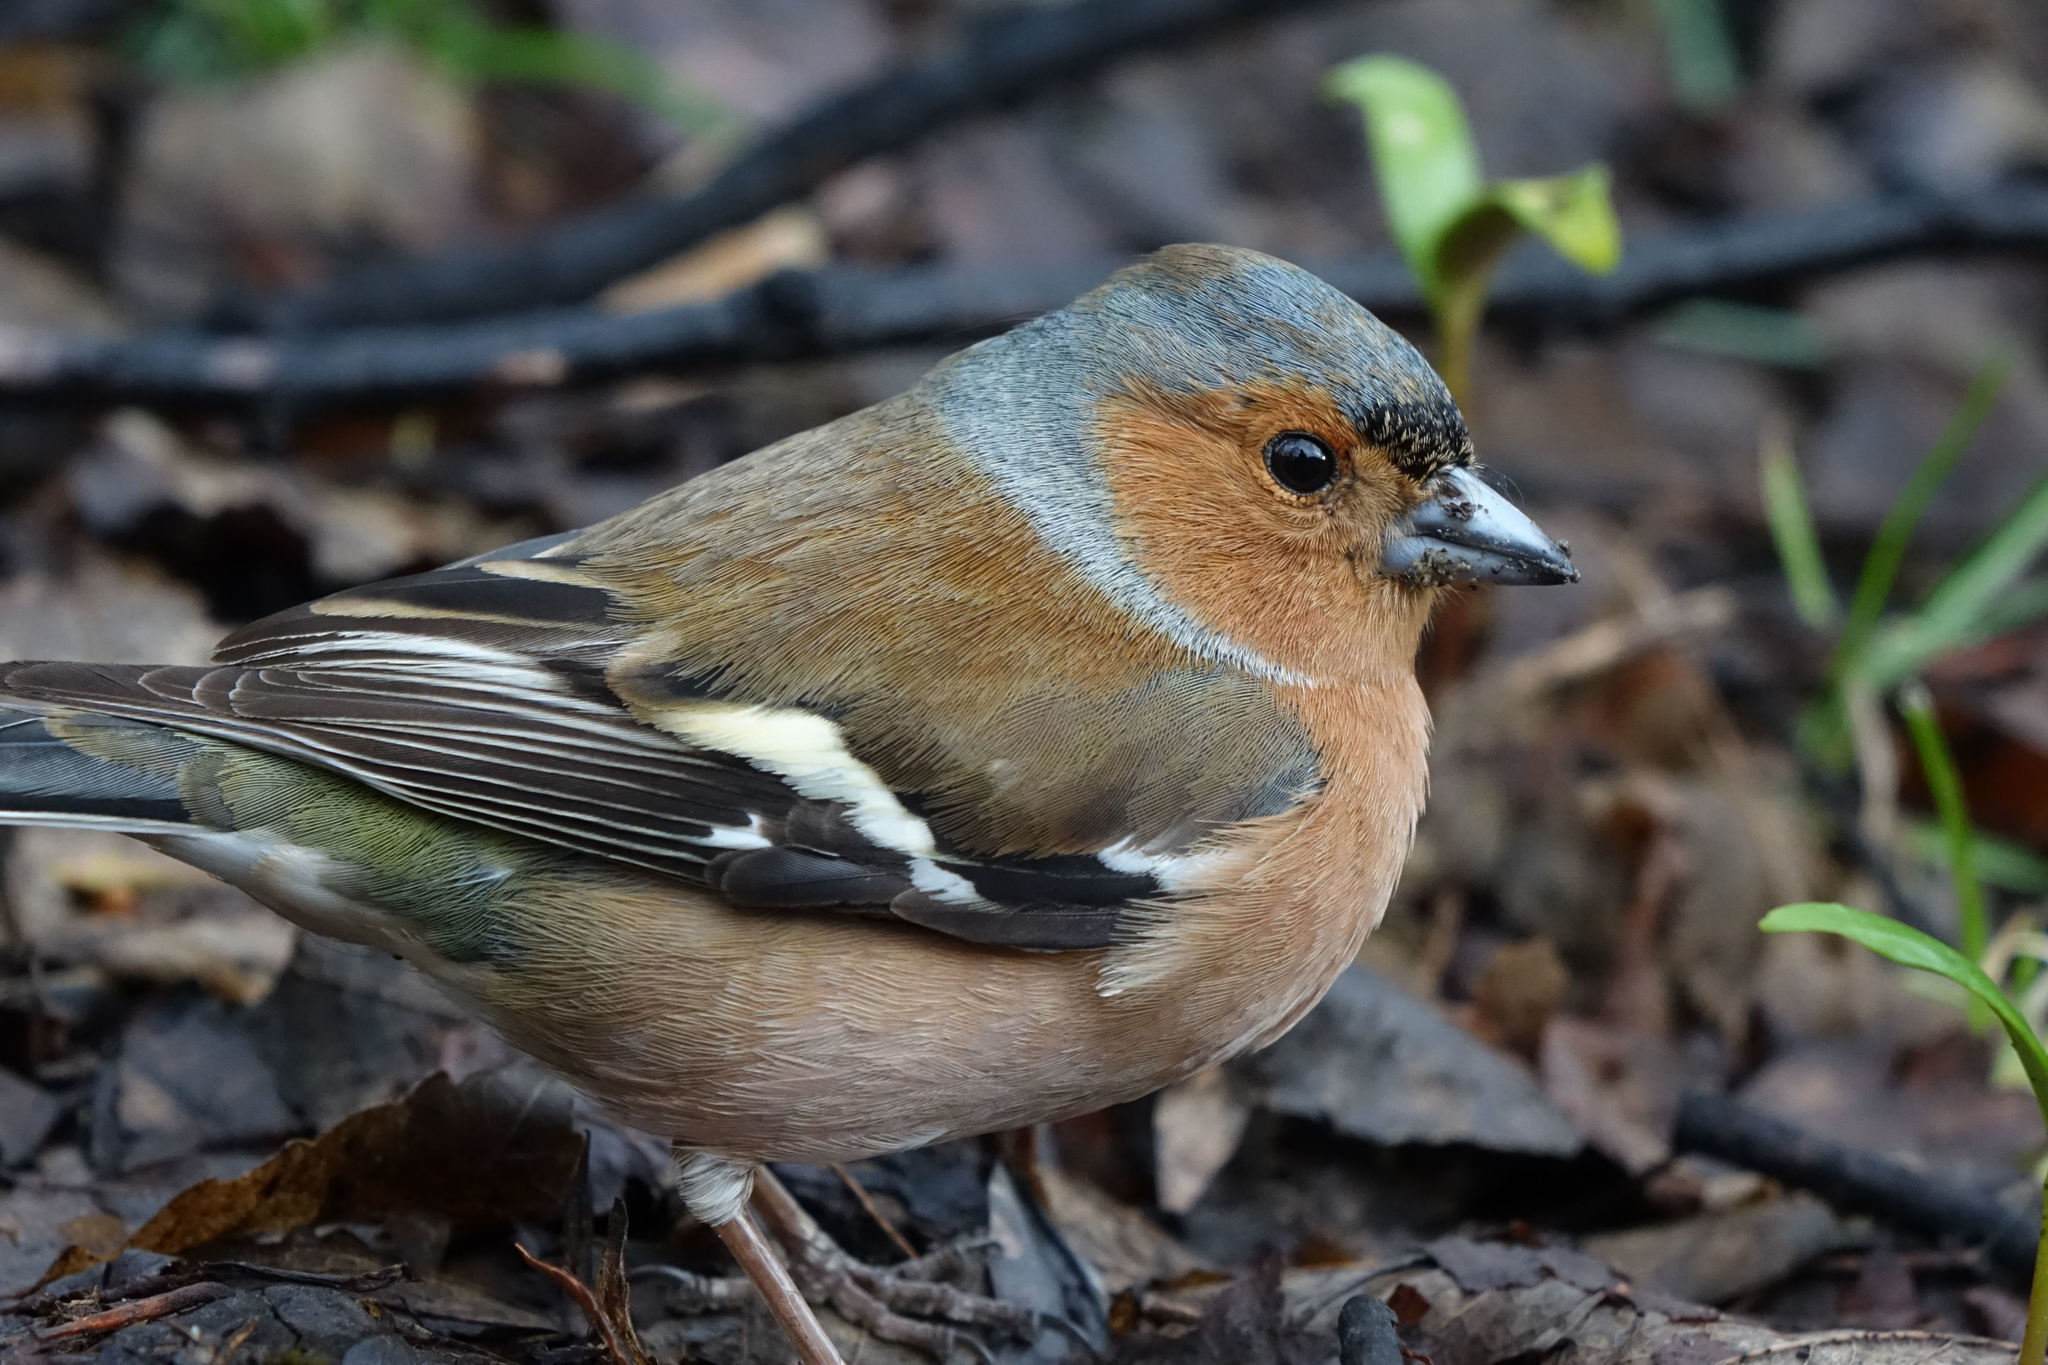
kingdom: Animalia
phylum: Chordata
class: Aves
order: Passeriformes
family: Fringillidae
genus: Fringilla
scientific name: Fringilla coelebs
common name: Common chaffinch
